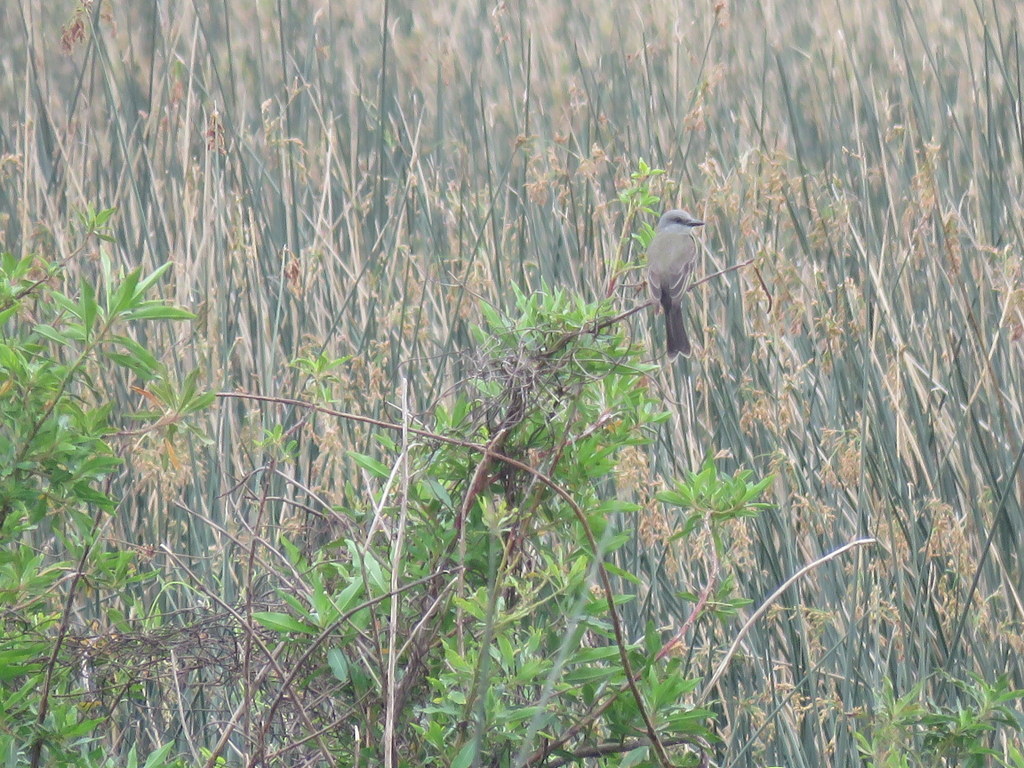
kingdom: Animalia
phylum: Chordata
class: Aves
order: Passeriformes
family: Tyrannidae
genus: Tyrannus
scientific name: Tyrannus melancholicus
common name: Tropical kingbird
